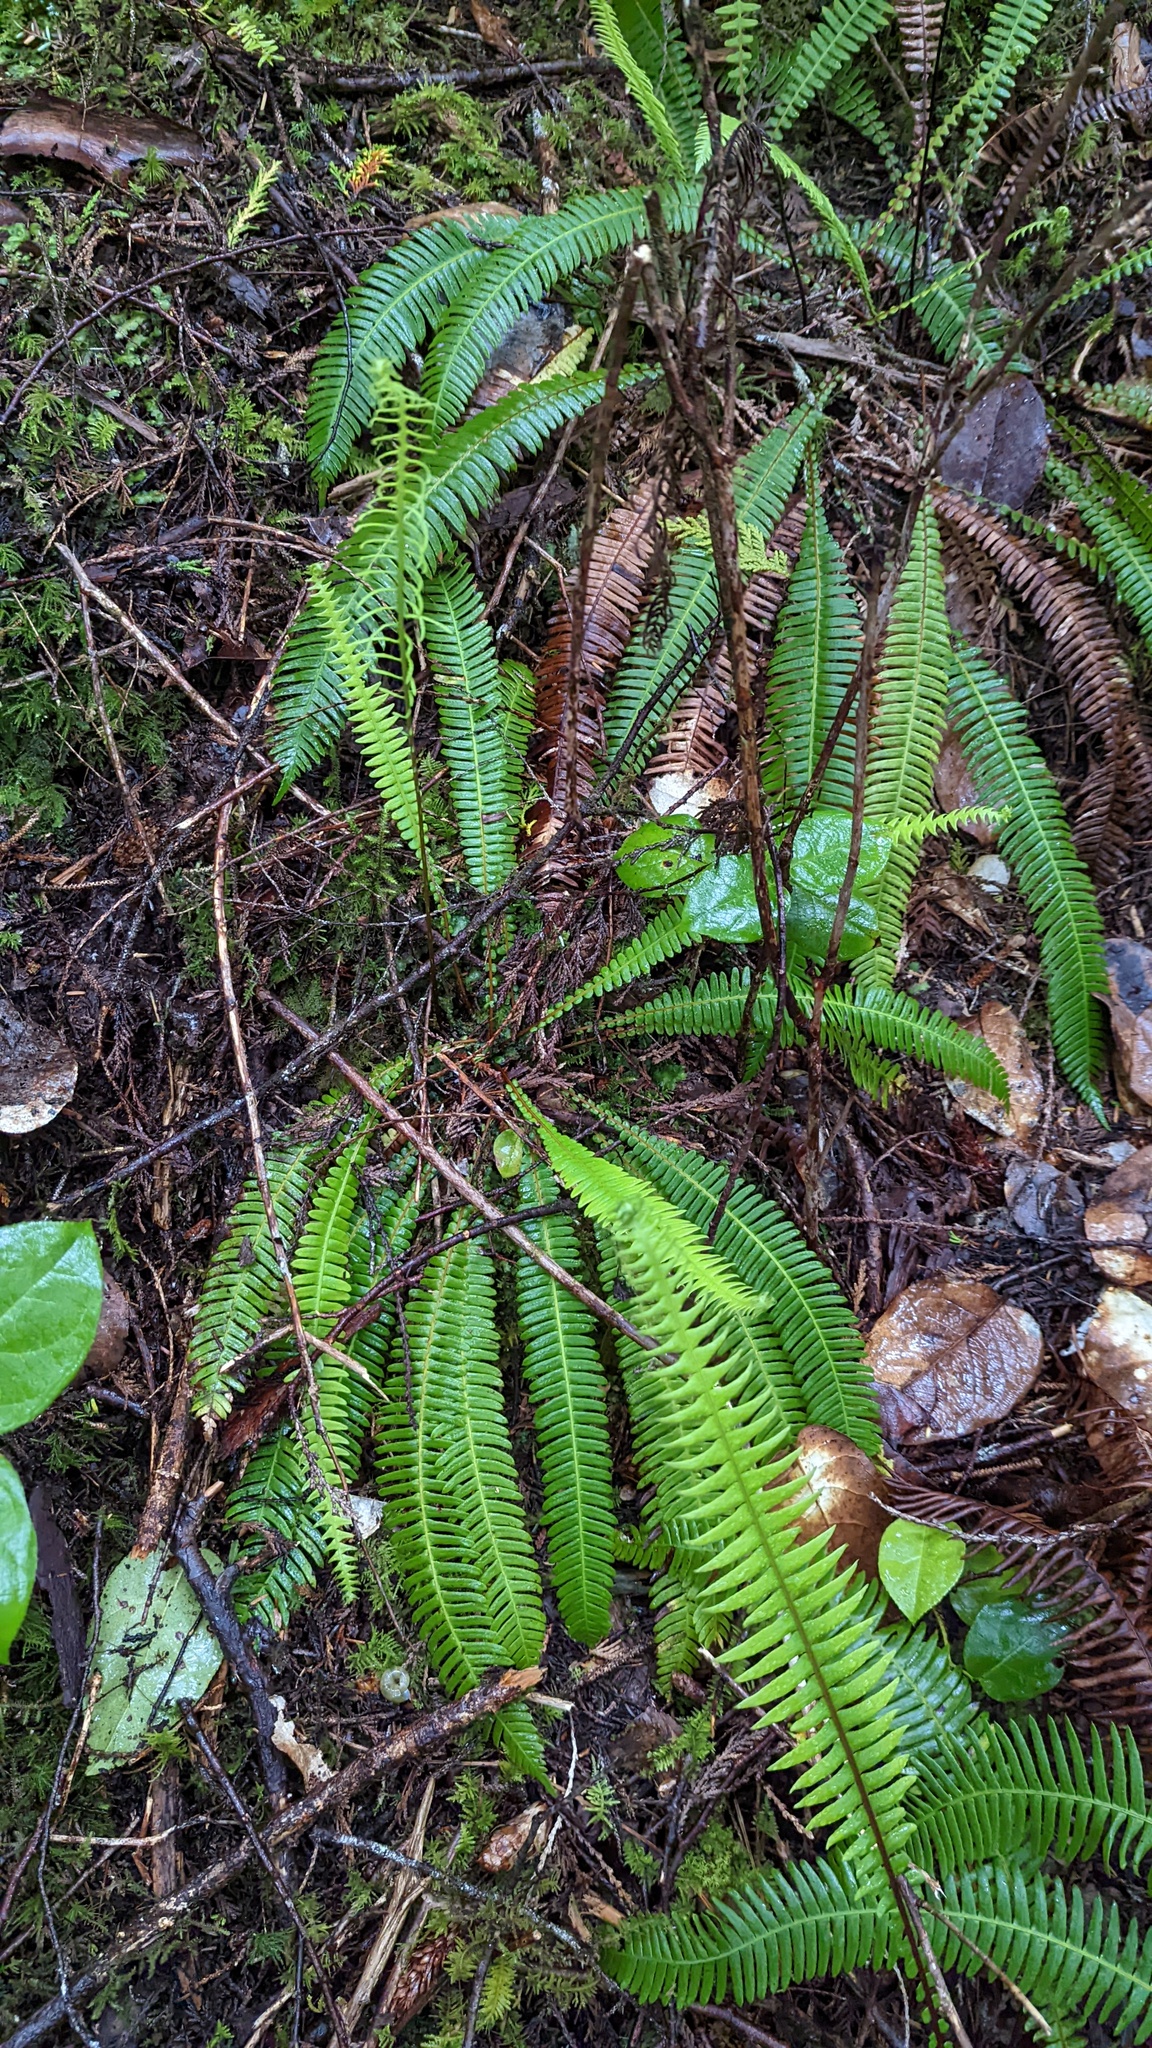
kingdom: Plantae
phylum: Tracheophyta
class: Polypodiopsida
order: Polypodiales
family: Blechnaceae
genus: Struthiopteris
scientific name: Struthiopteris spicant
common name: Deer fern
